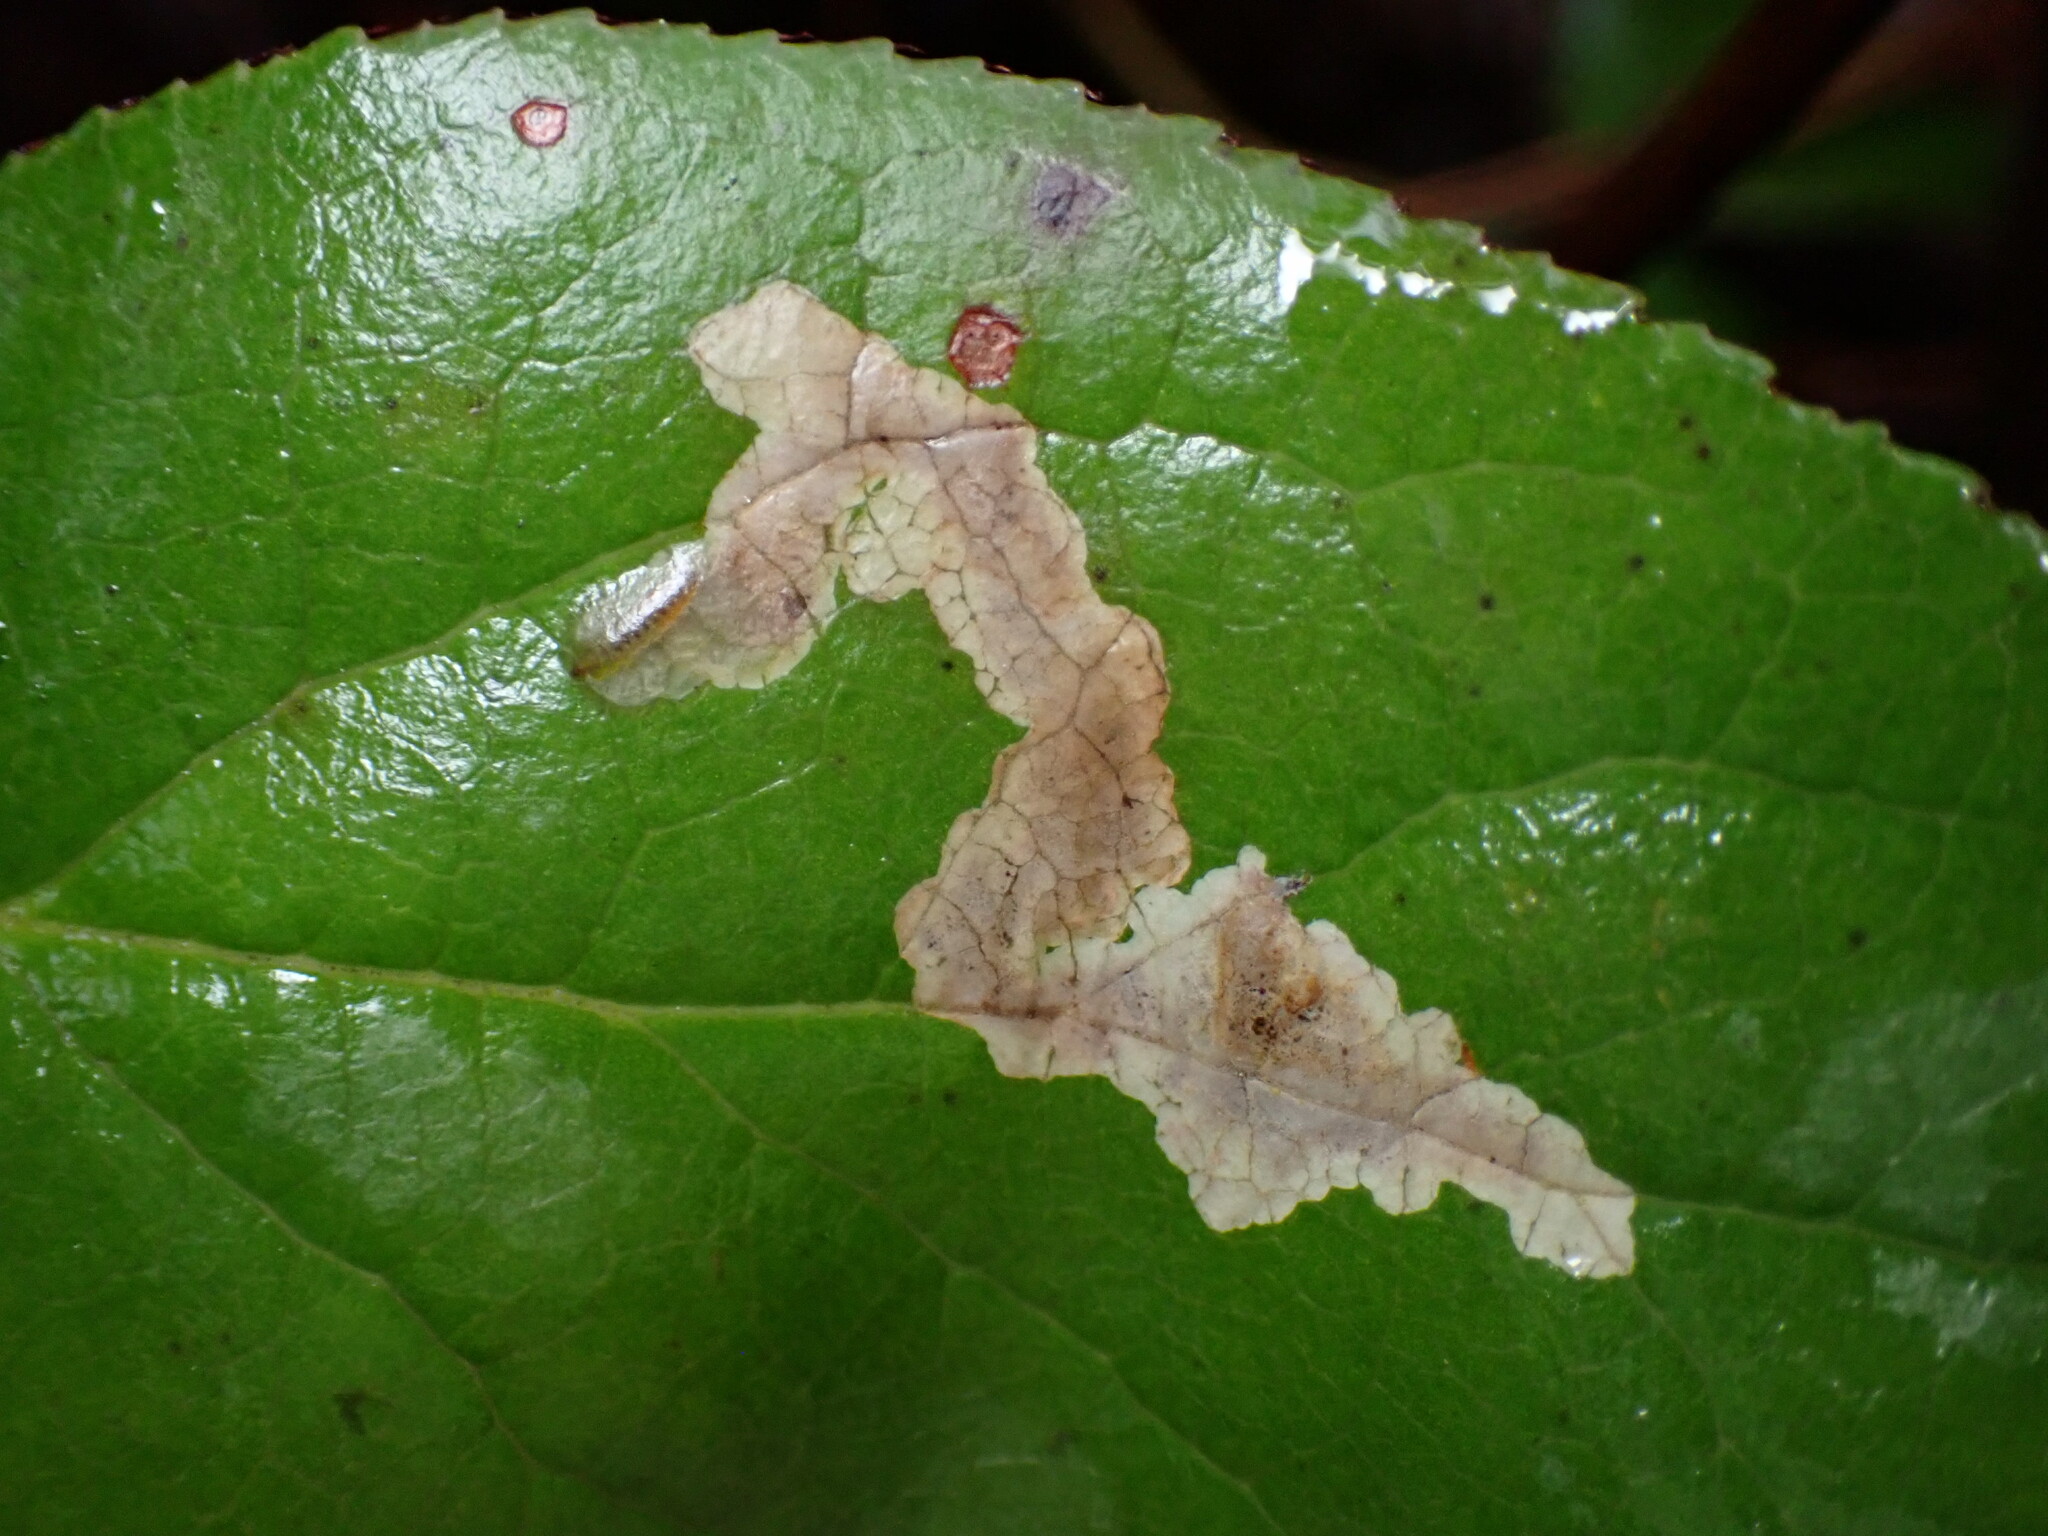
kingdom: Animalia
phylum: Arthropoda
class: Insecta
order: Lepidoptera
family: Gracillariidae
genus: Cameraria
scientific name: Cameraria gaultheriella
